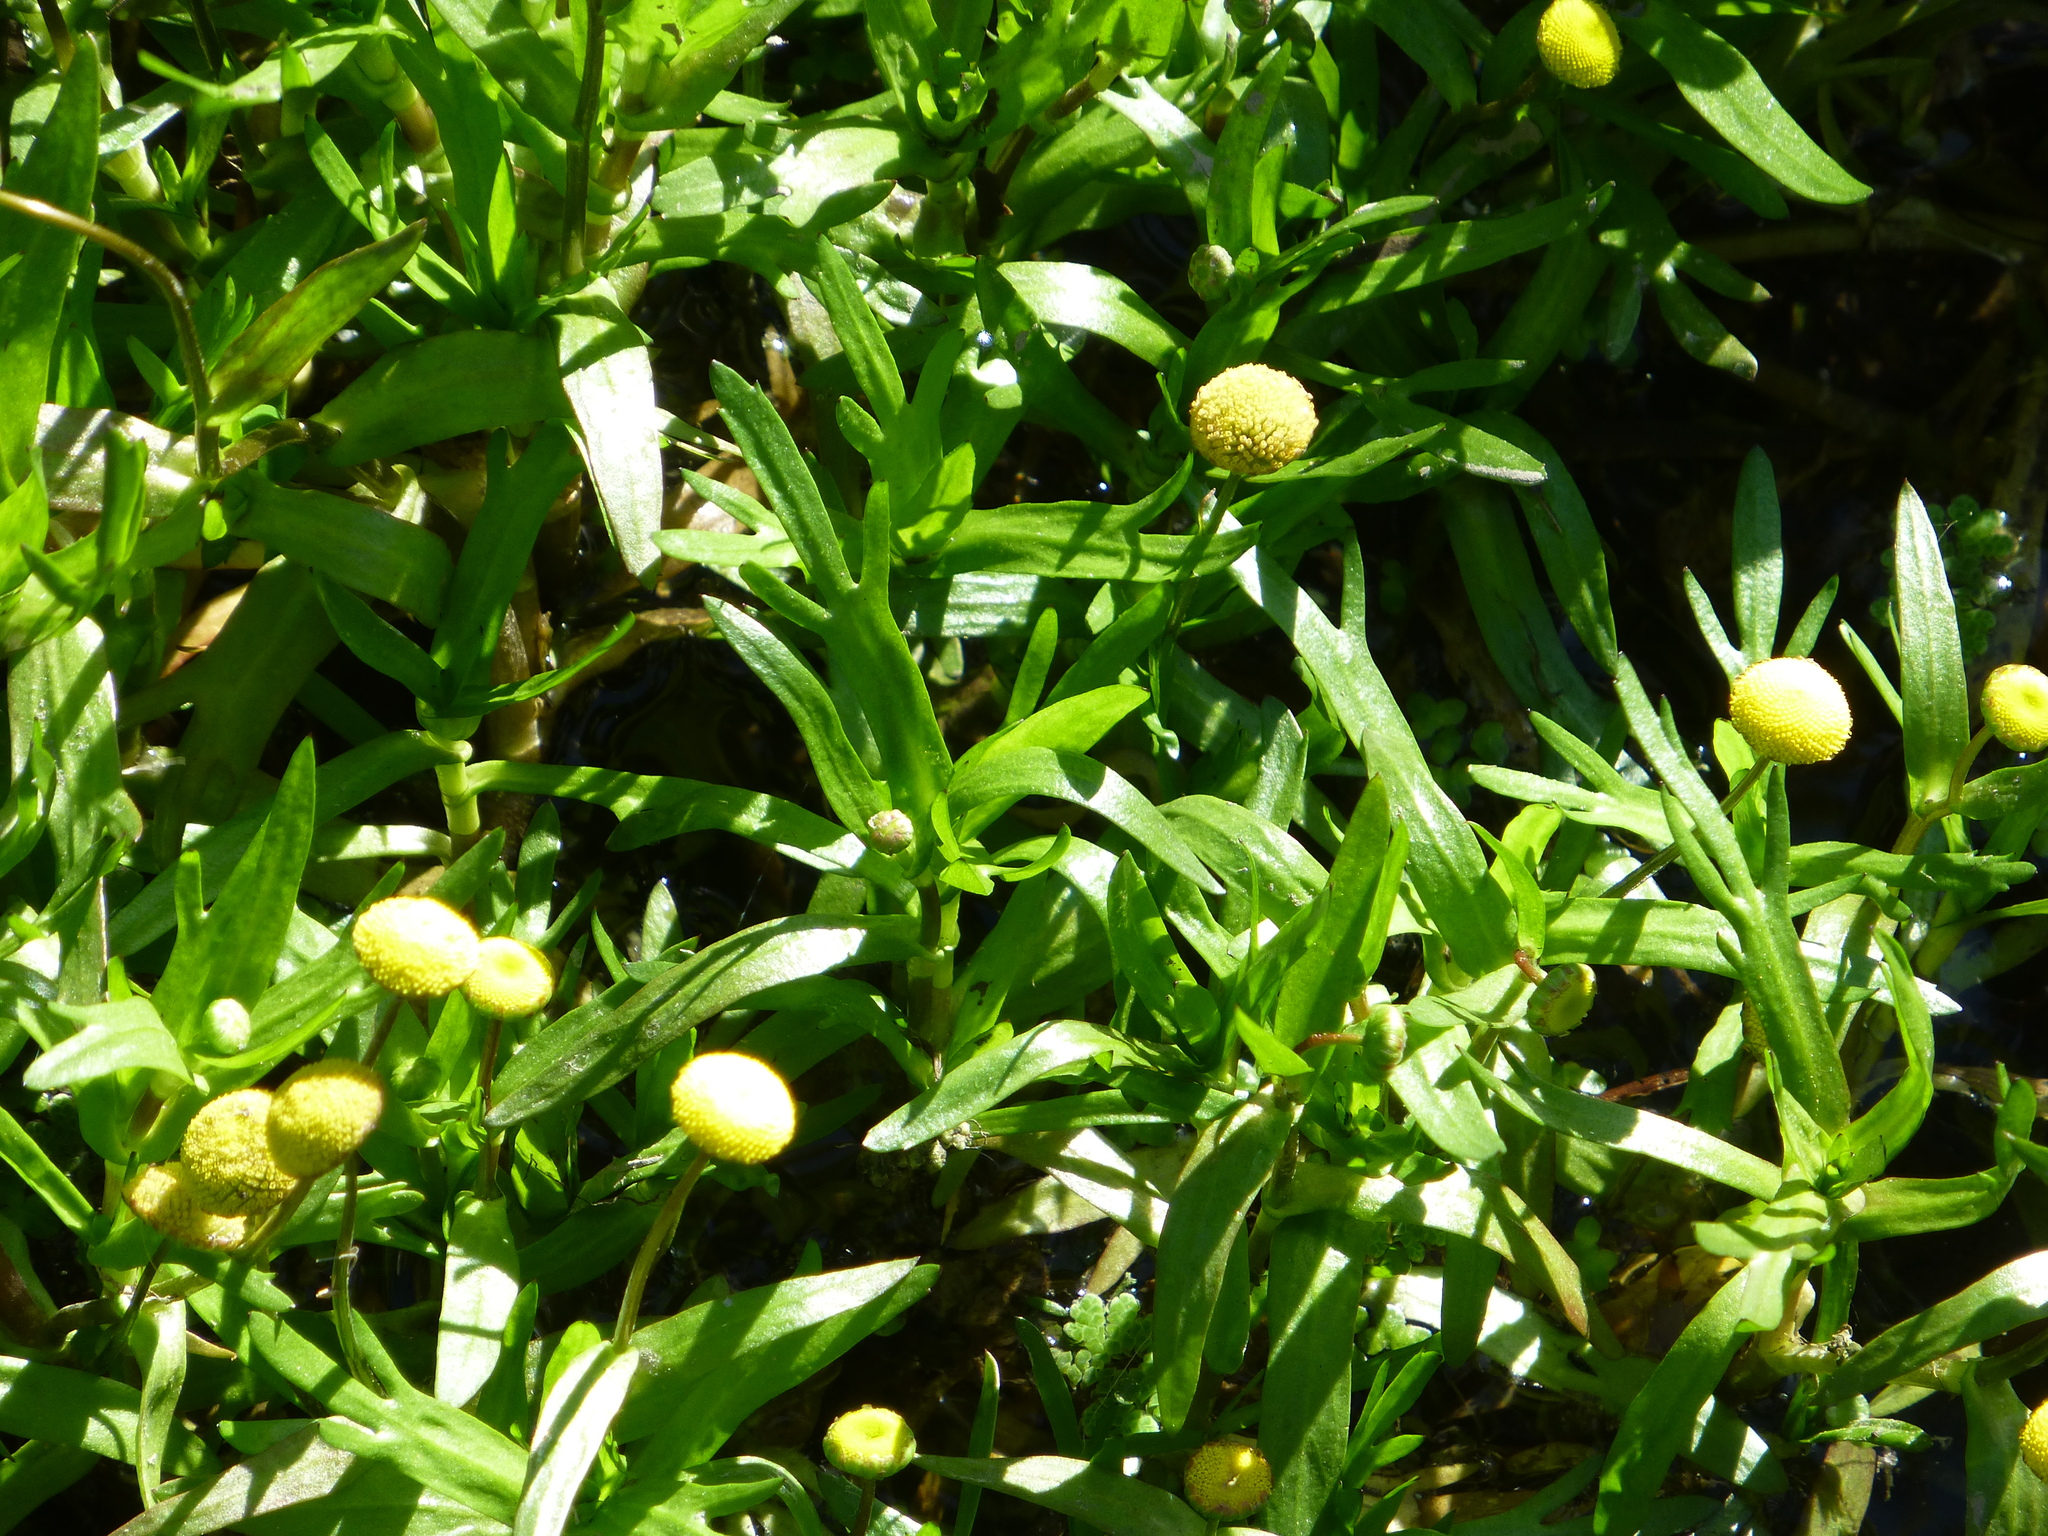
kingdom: Plantae
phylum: Tracheophyta
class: Magnoliopsida
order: Asterales
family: Asteraceae
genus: Cotula
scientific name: Cotula coronopifolia
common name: Buttonweed
